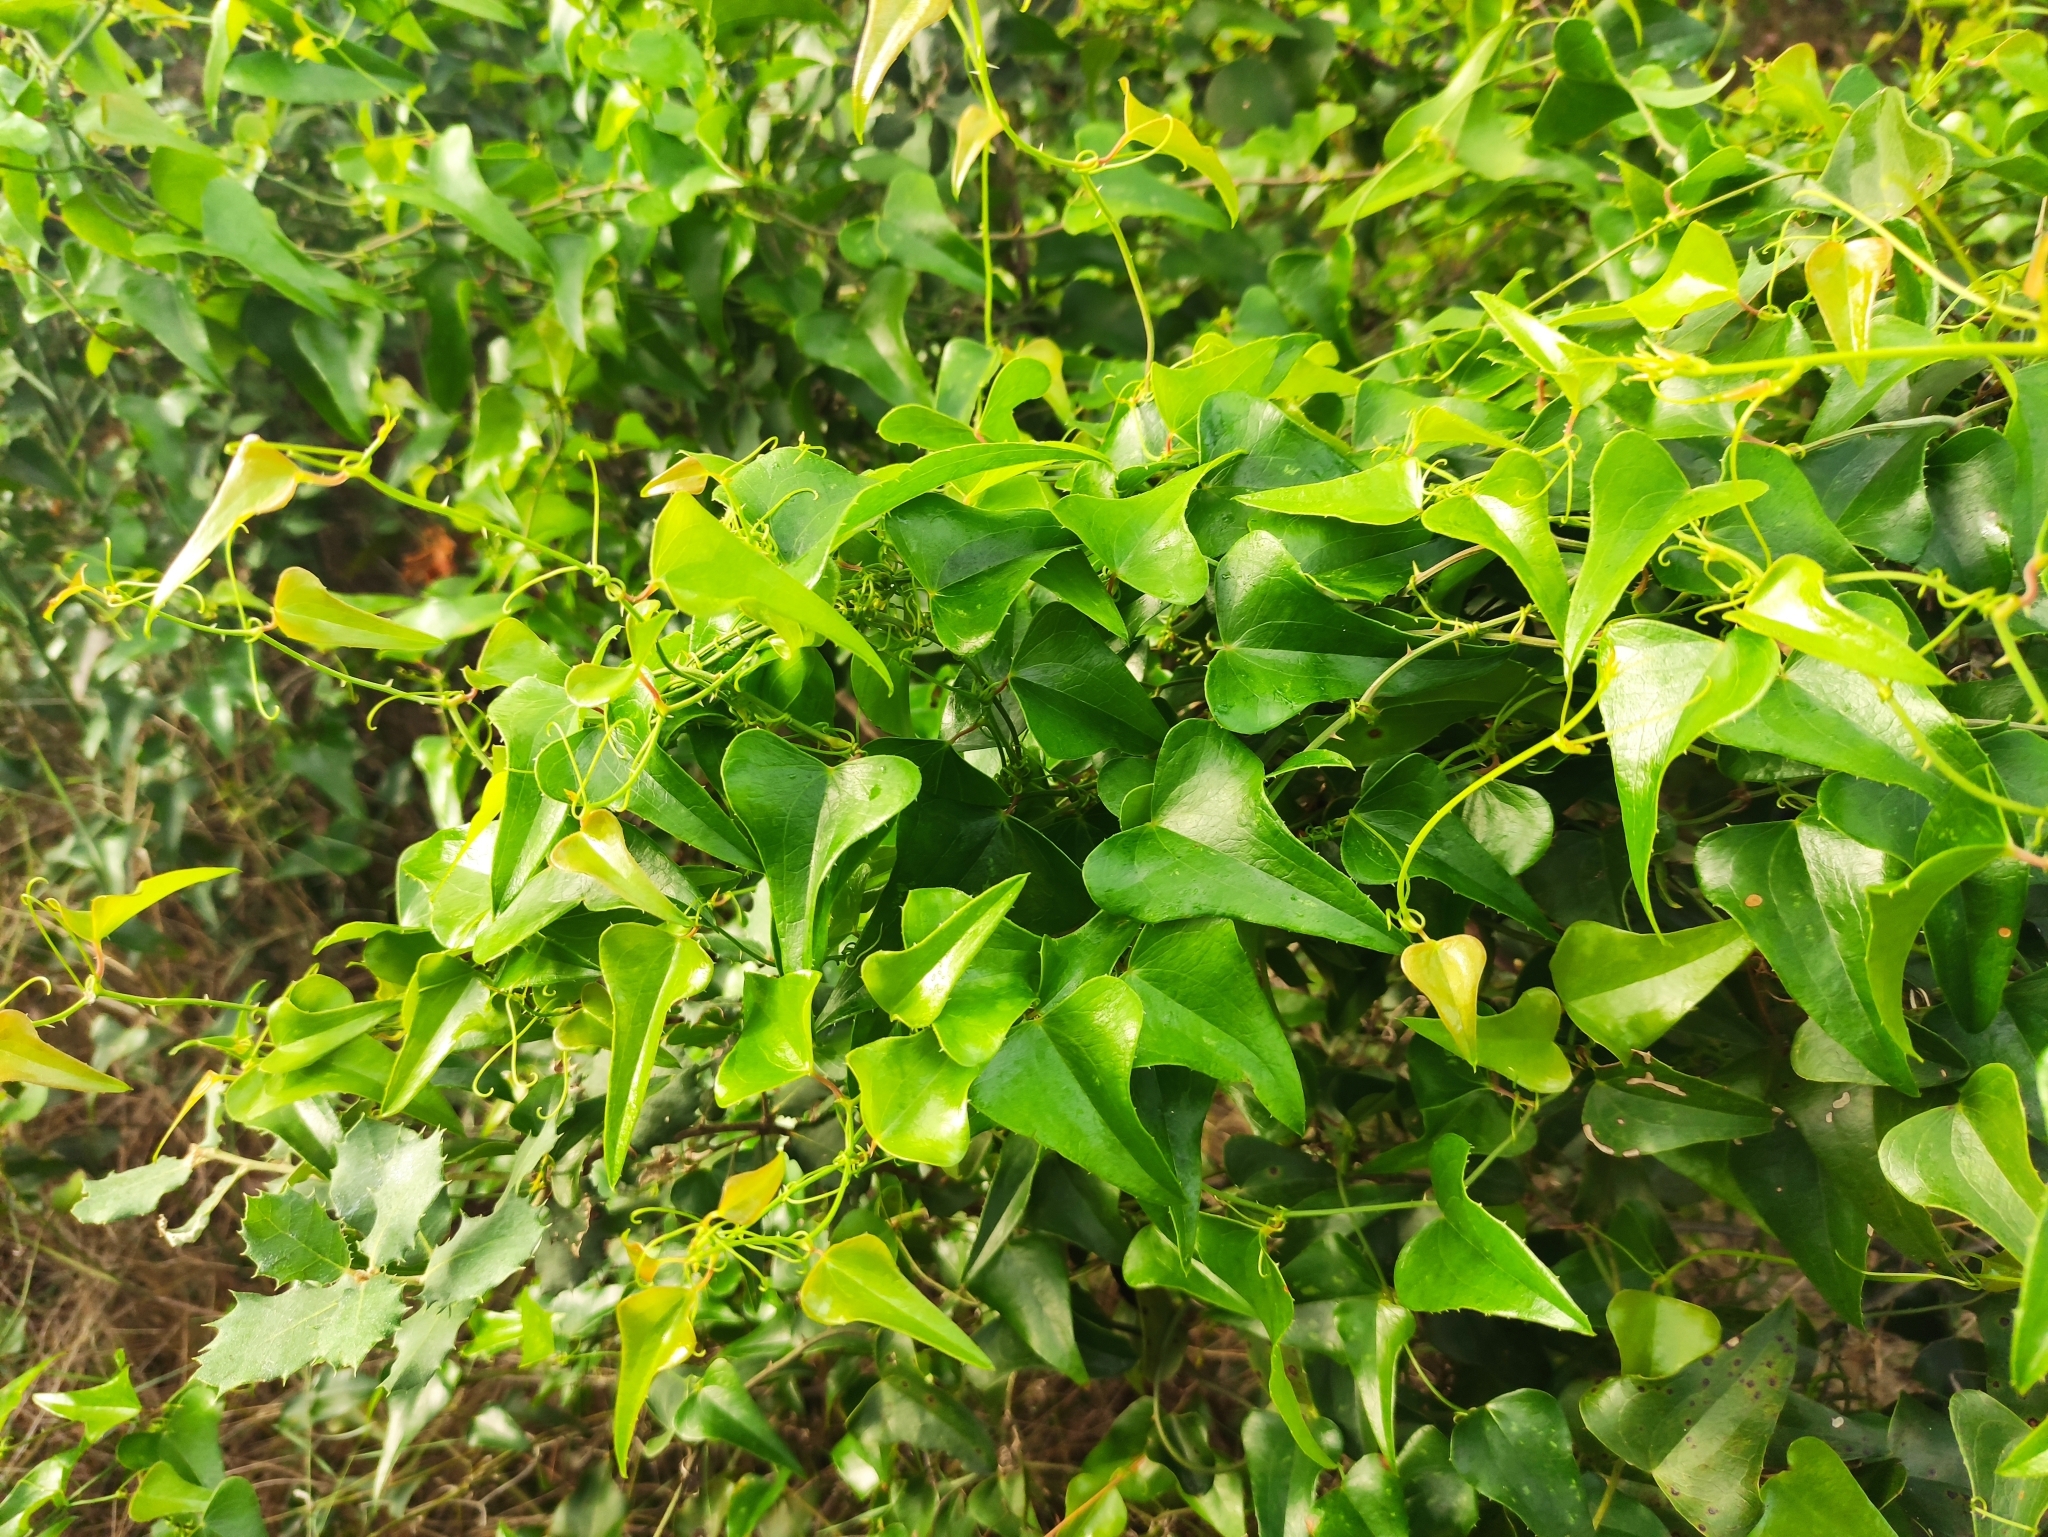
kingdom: Plantae
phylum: Tracheophyta
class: Liliopsida
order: Liliales
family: Smilacaceae
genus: Smilax
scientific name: Smilax aspera
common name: Common smilax
